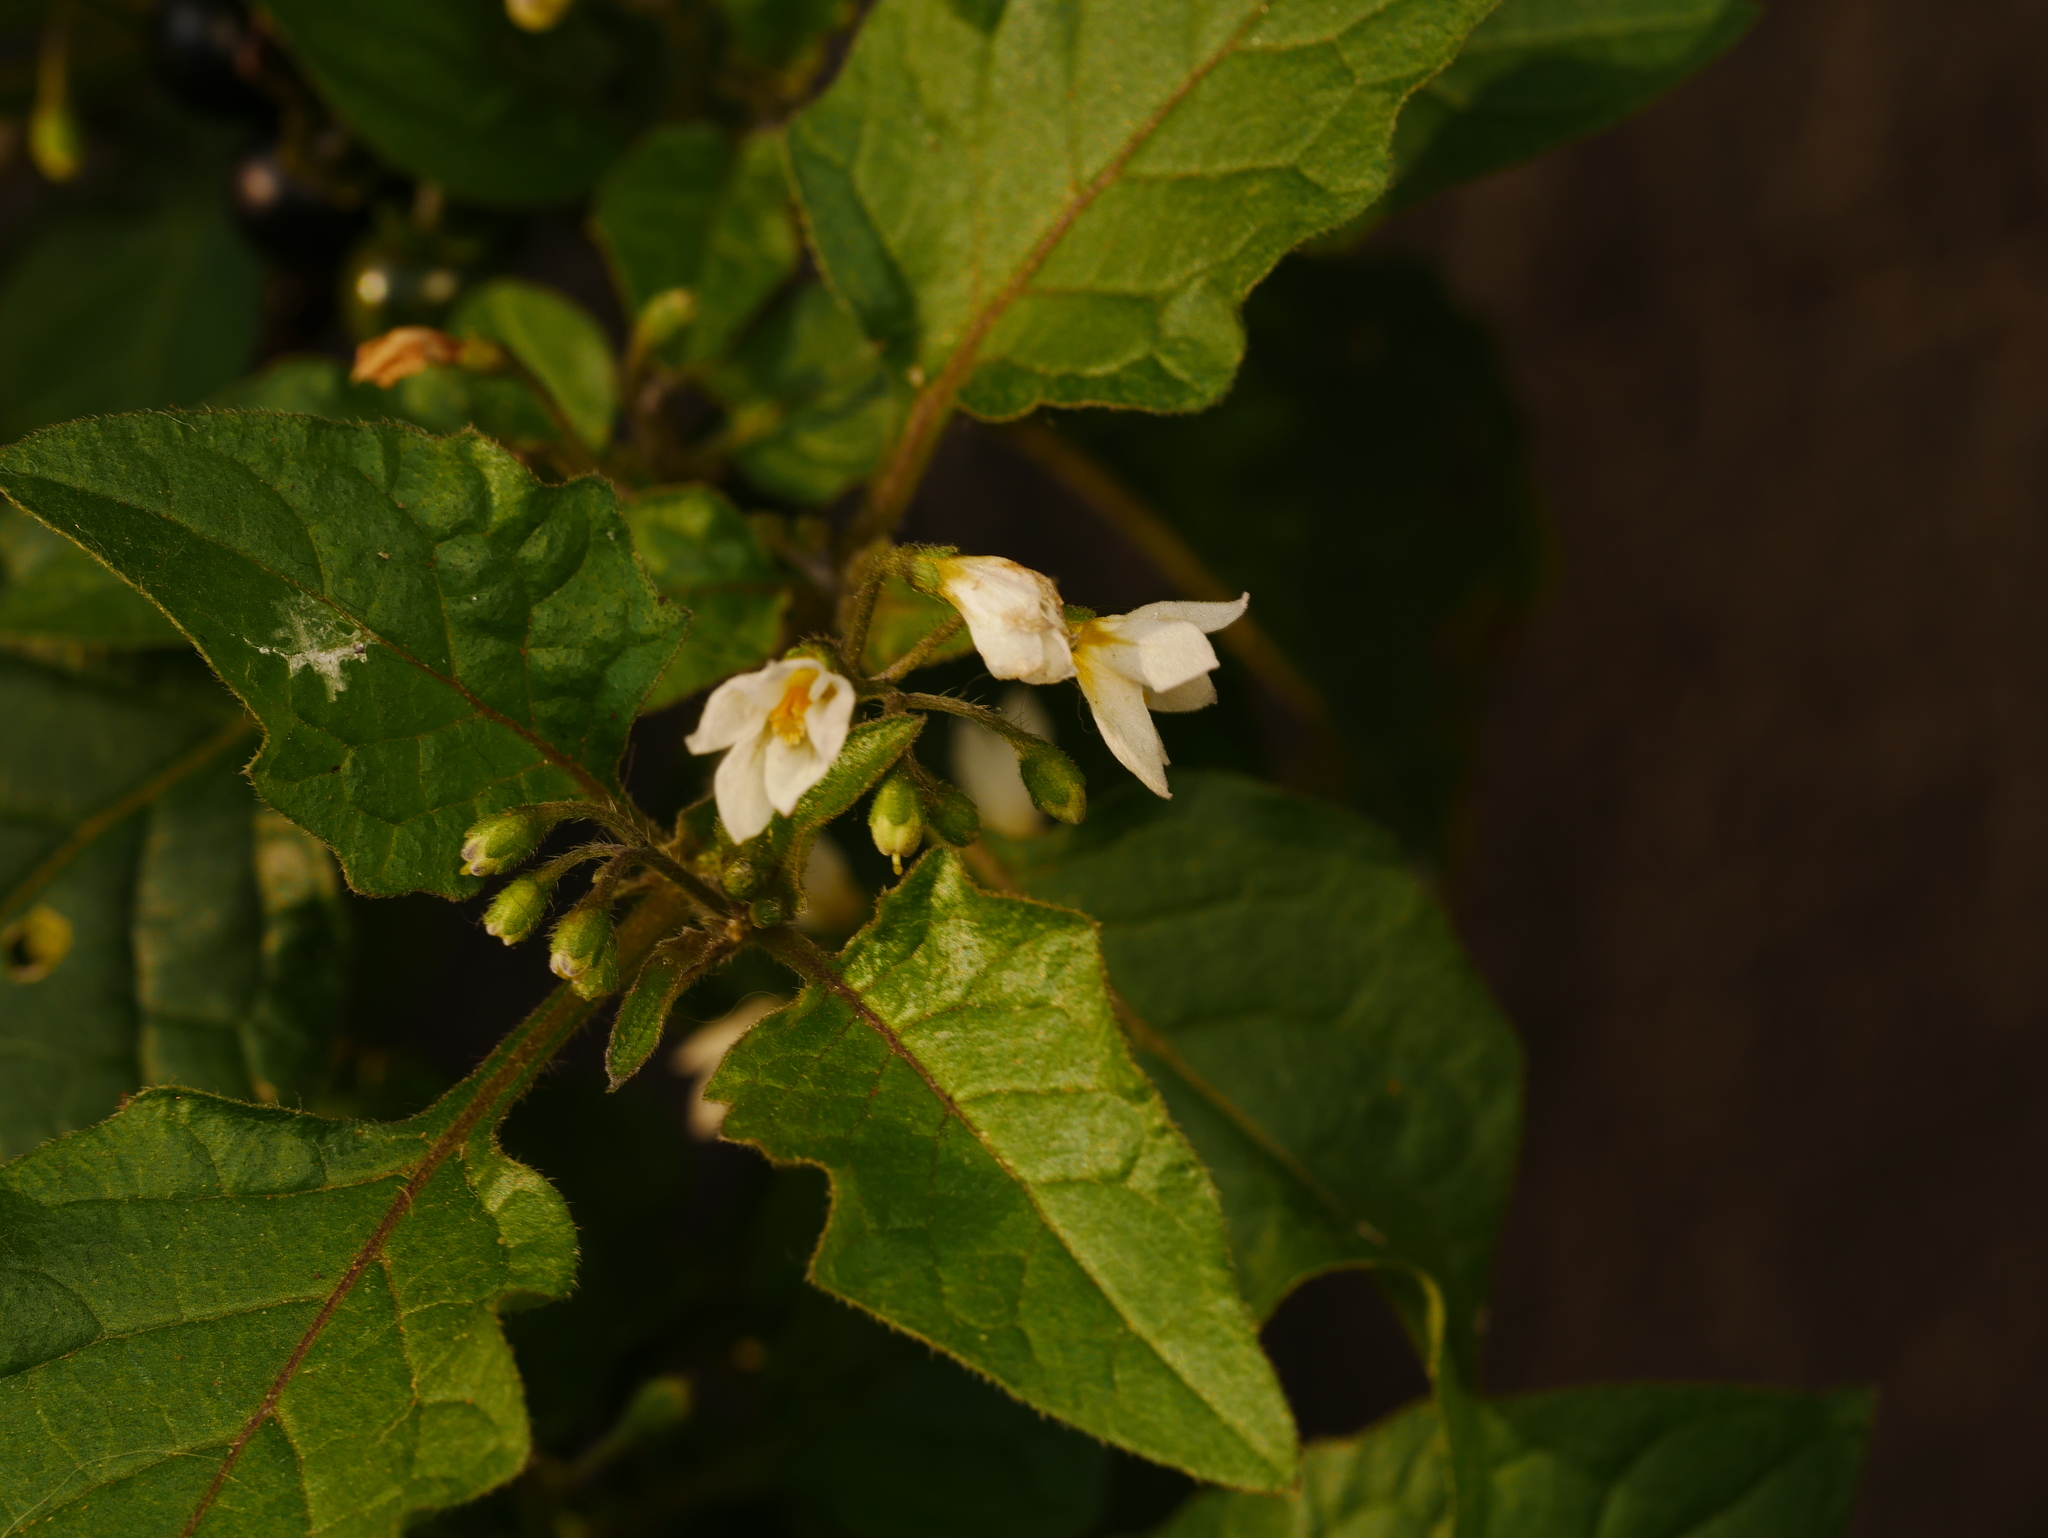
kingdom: Plantae
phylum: Tracheophyta
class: Magnoliopsida
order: Solanales
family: Solanaceae
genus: Solanum
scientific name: Solanum nigrum
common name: Black nightshade
